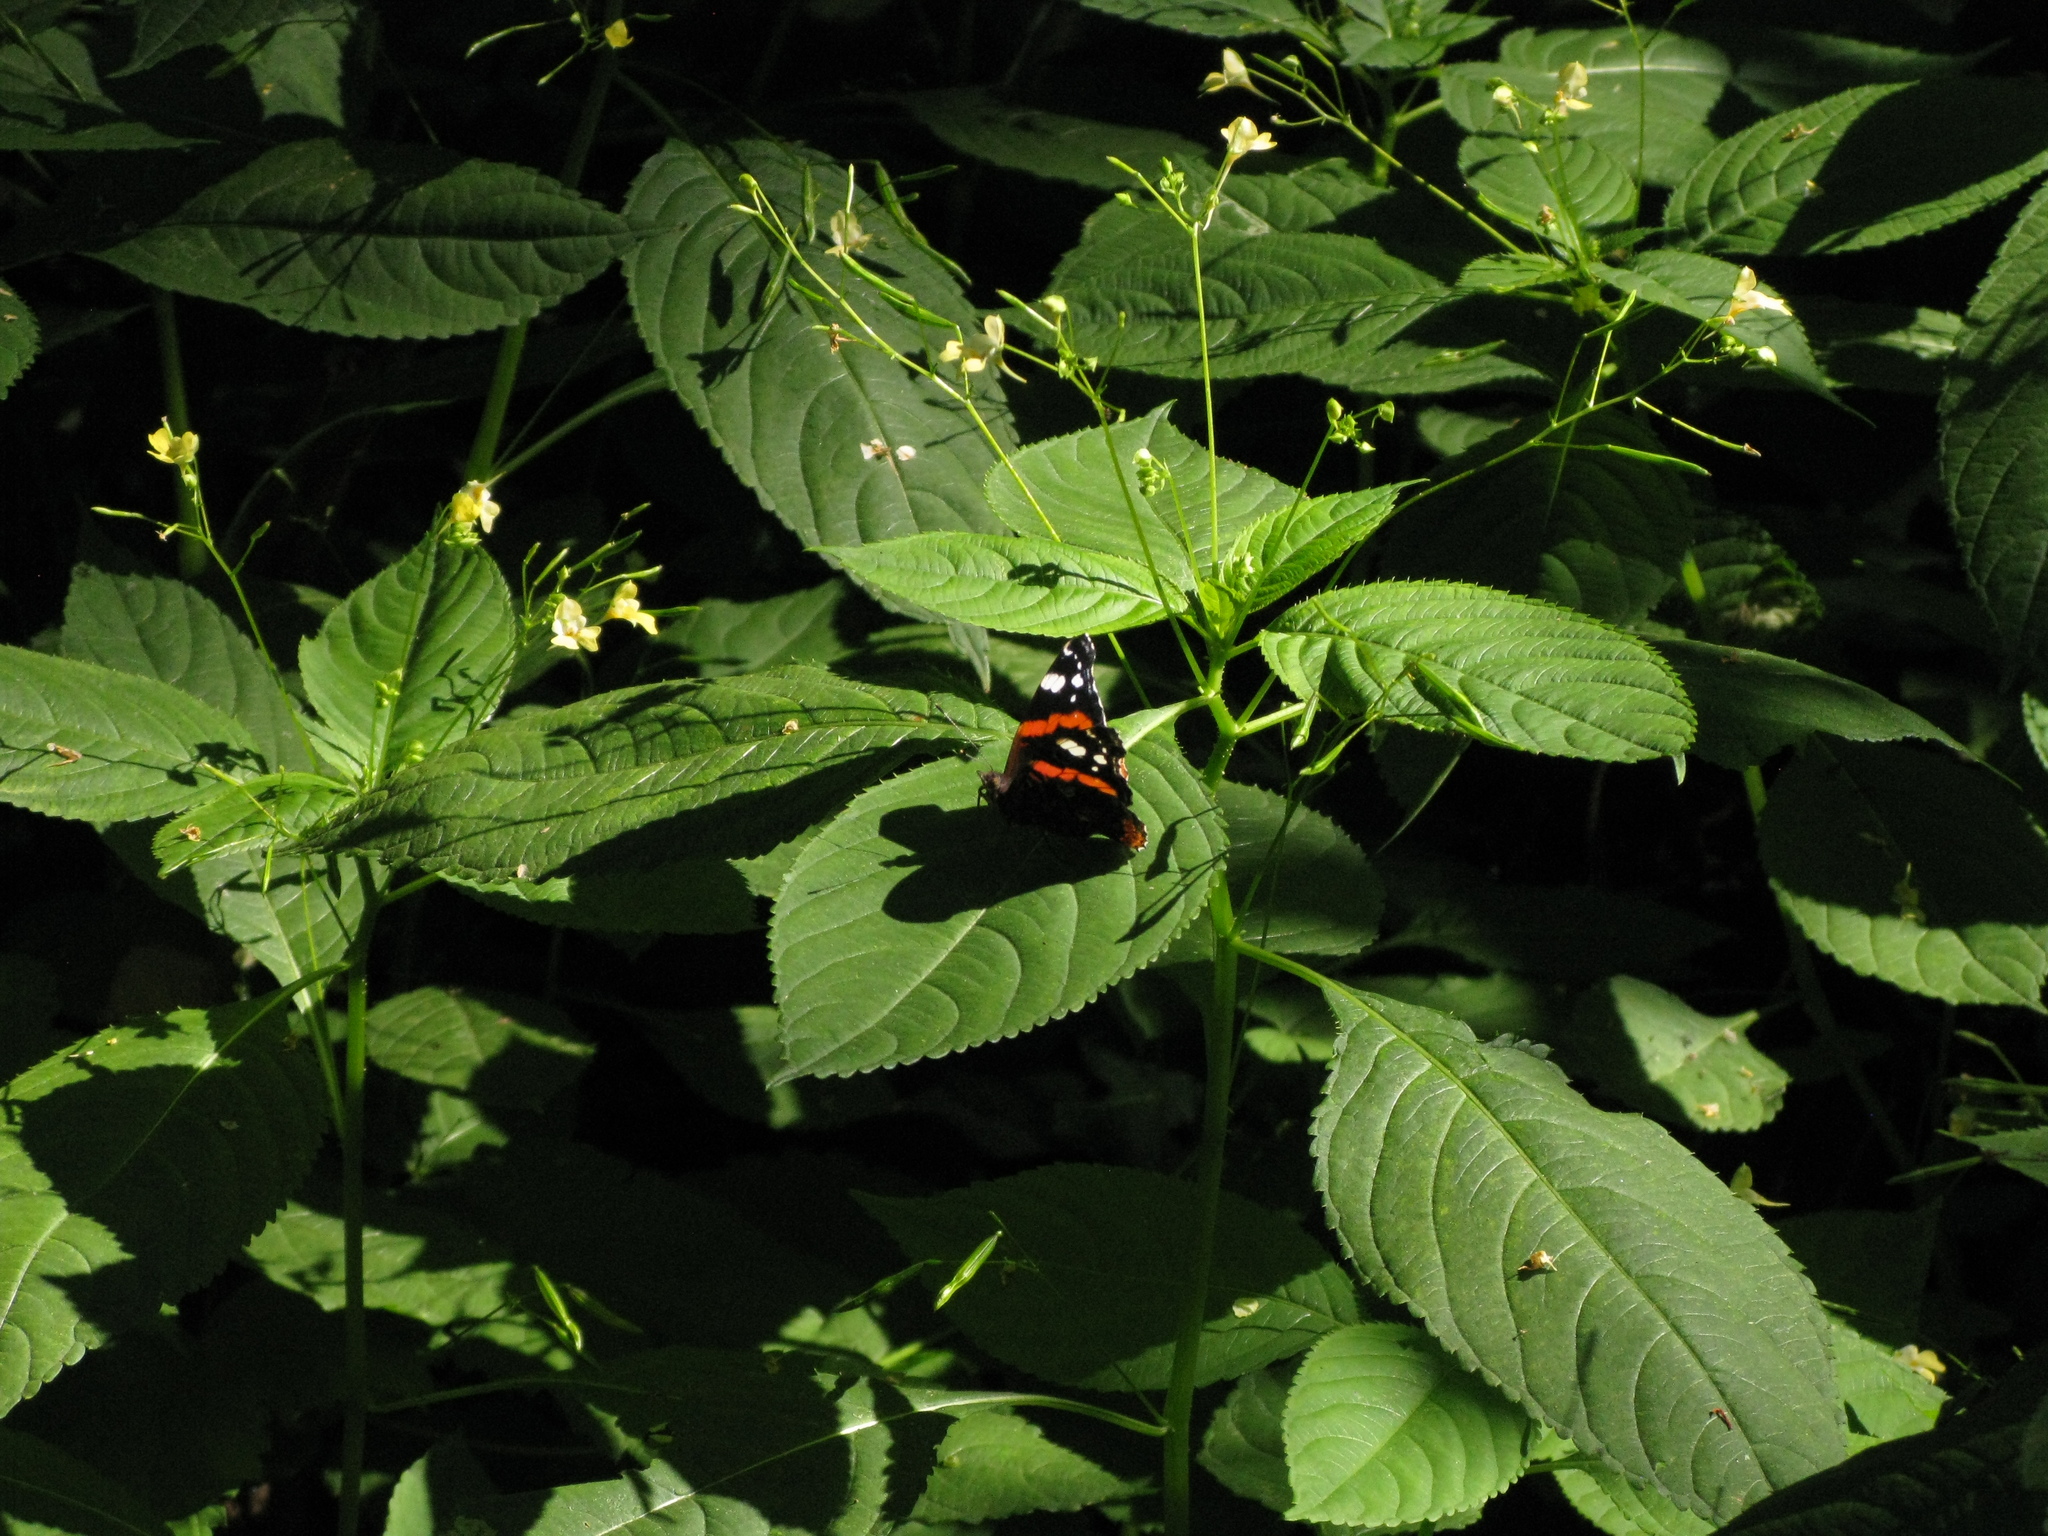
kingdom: Animalia
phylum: Arthropoda
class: Insecta
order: Lepidoptera
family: Nymphalidae
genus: Vanessa
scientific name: Vanessa atalanta
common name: Red admiral
